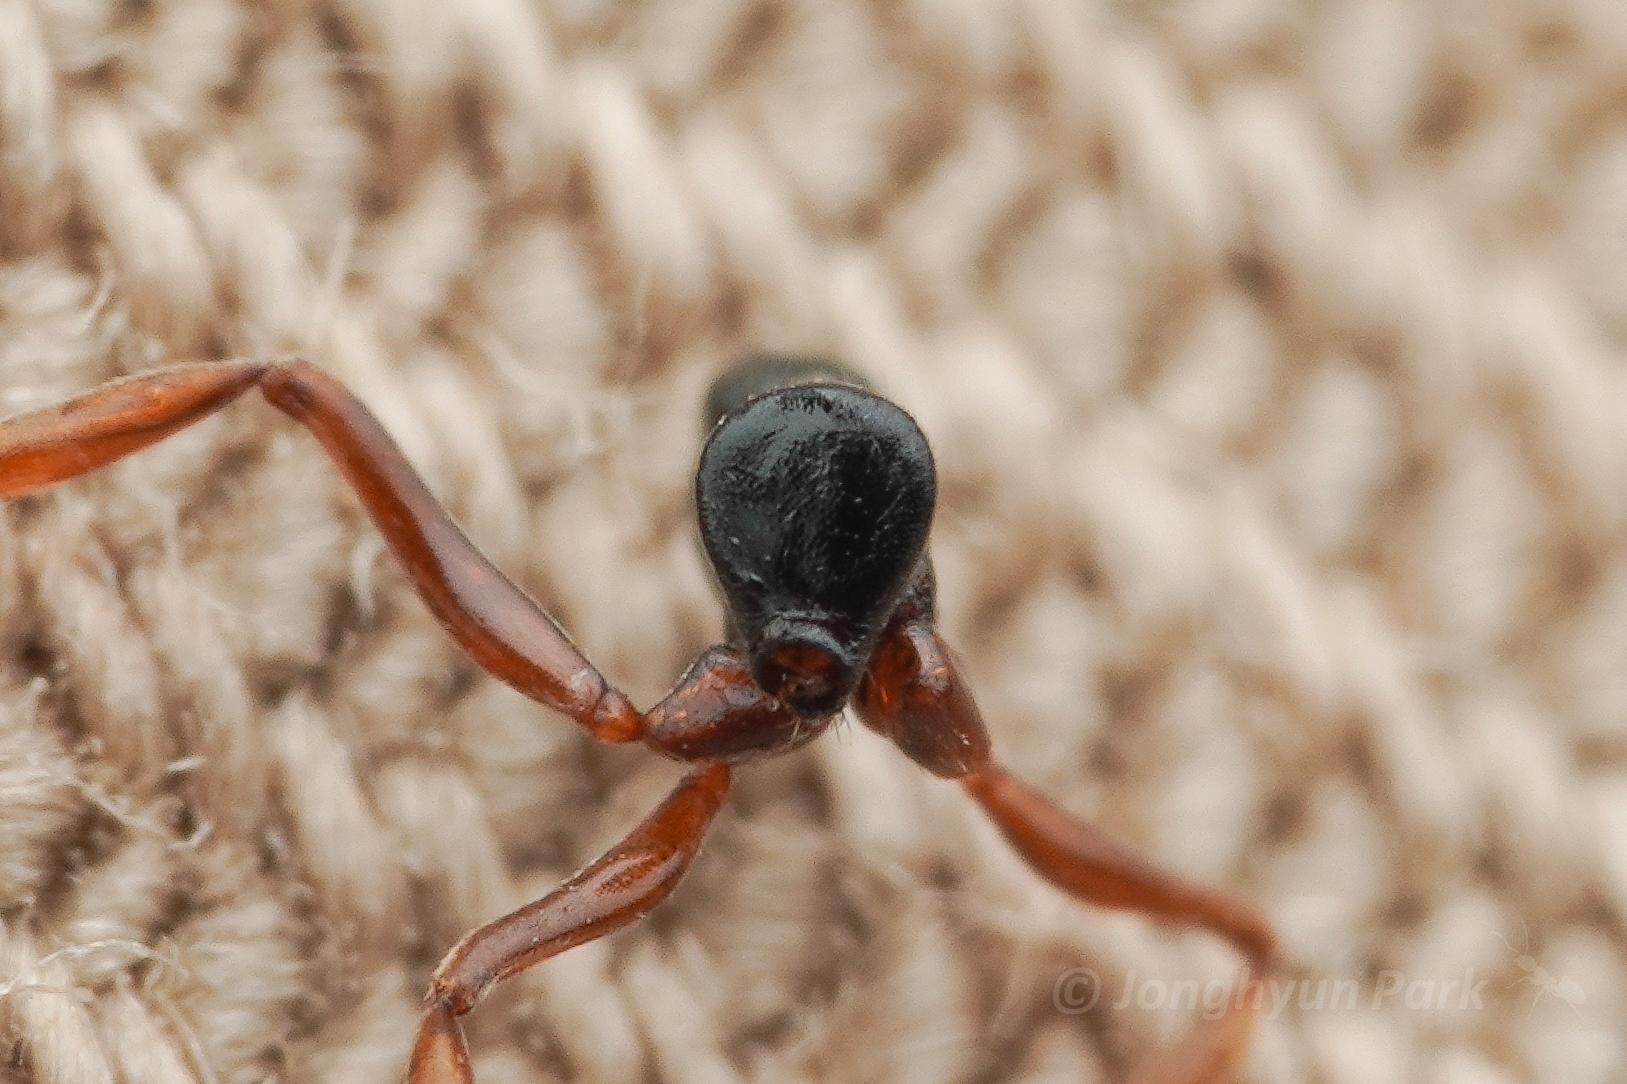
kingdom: Animalia
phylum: Arthropoda
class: Insecta
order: Hymenoptera
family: Formicidae
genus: Brachyponera
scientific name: Brachyponera
